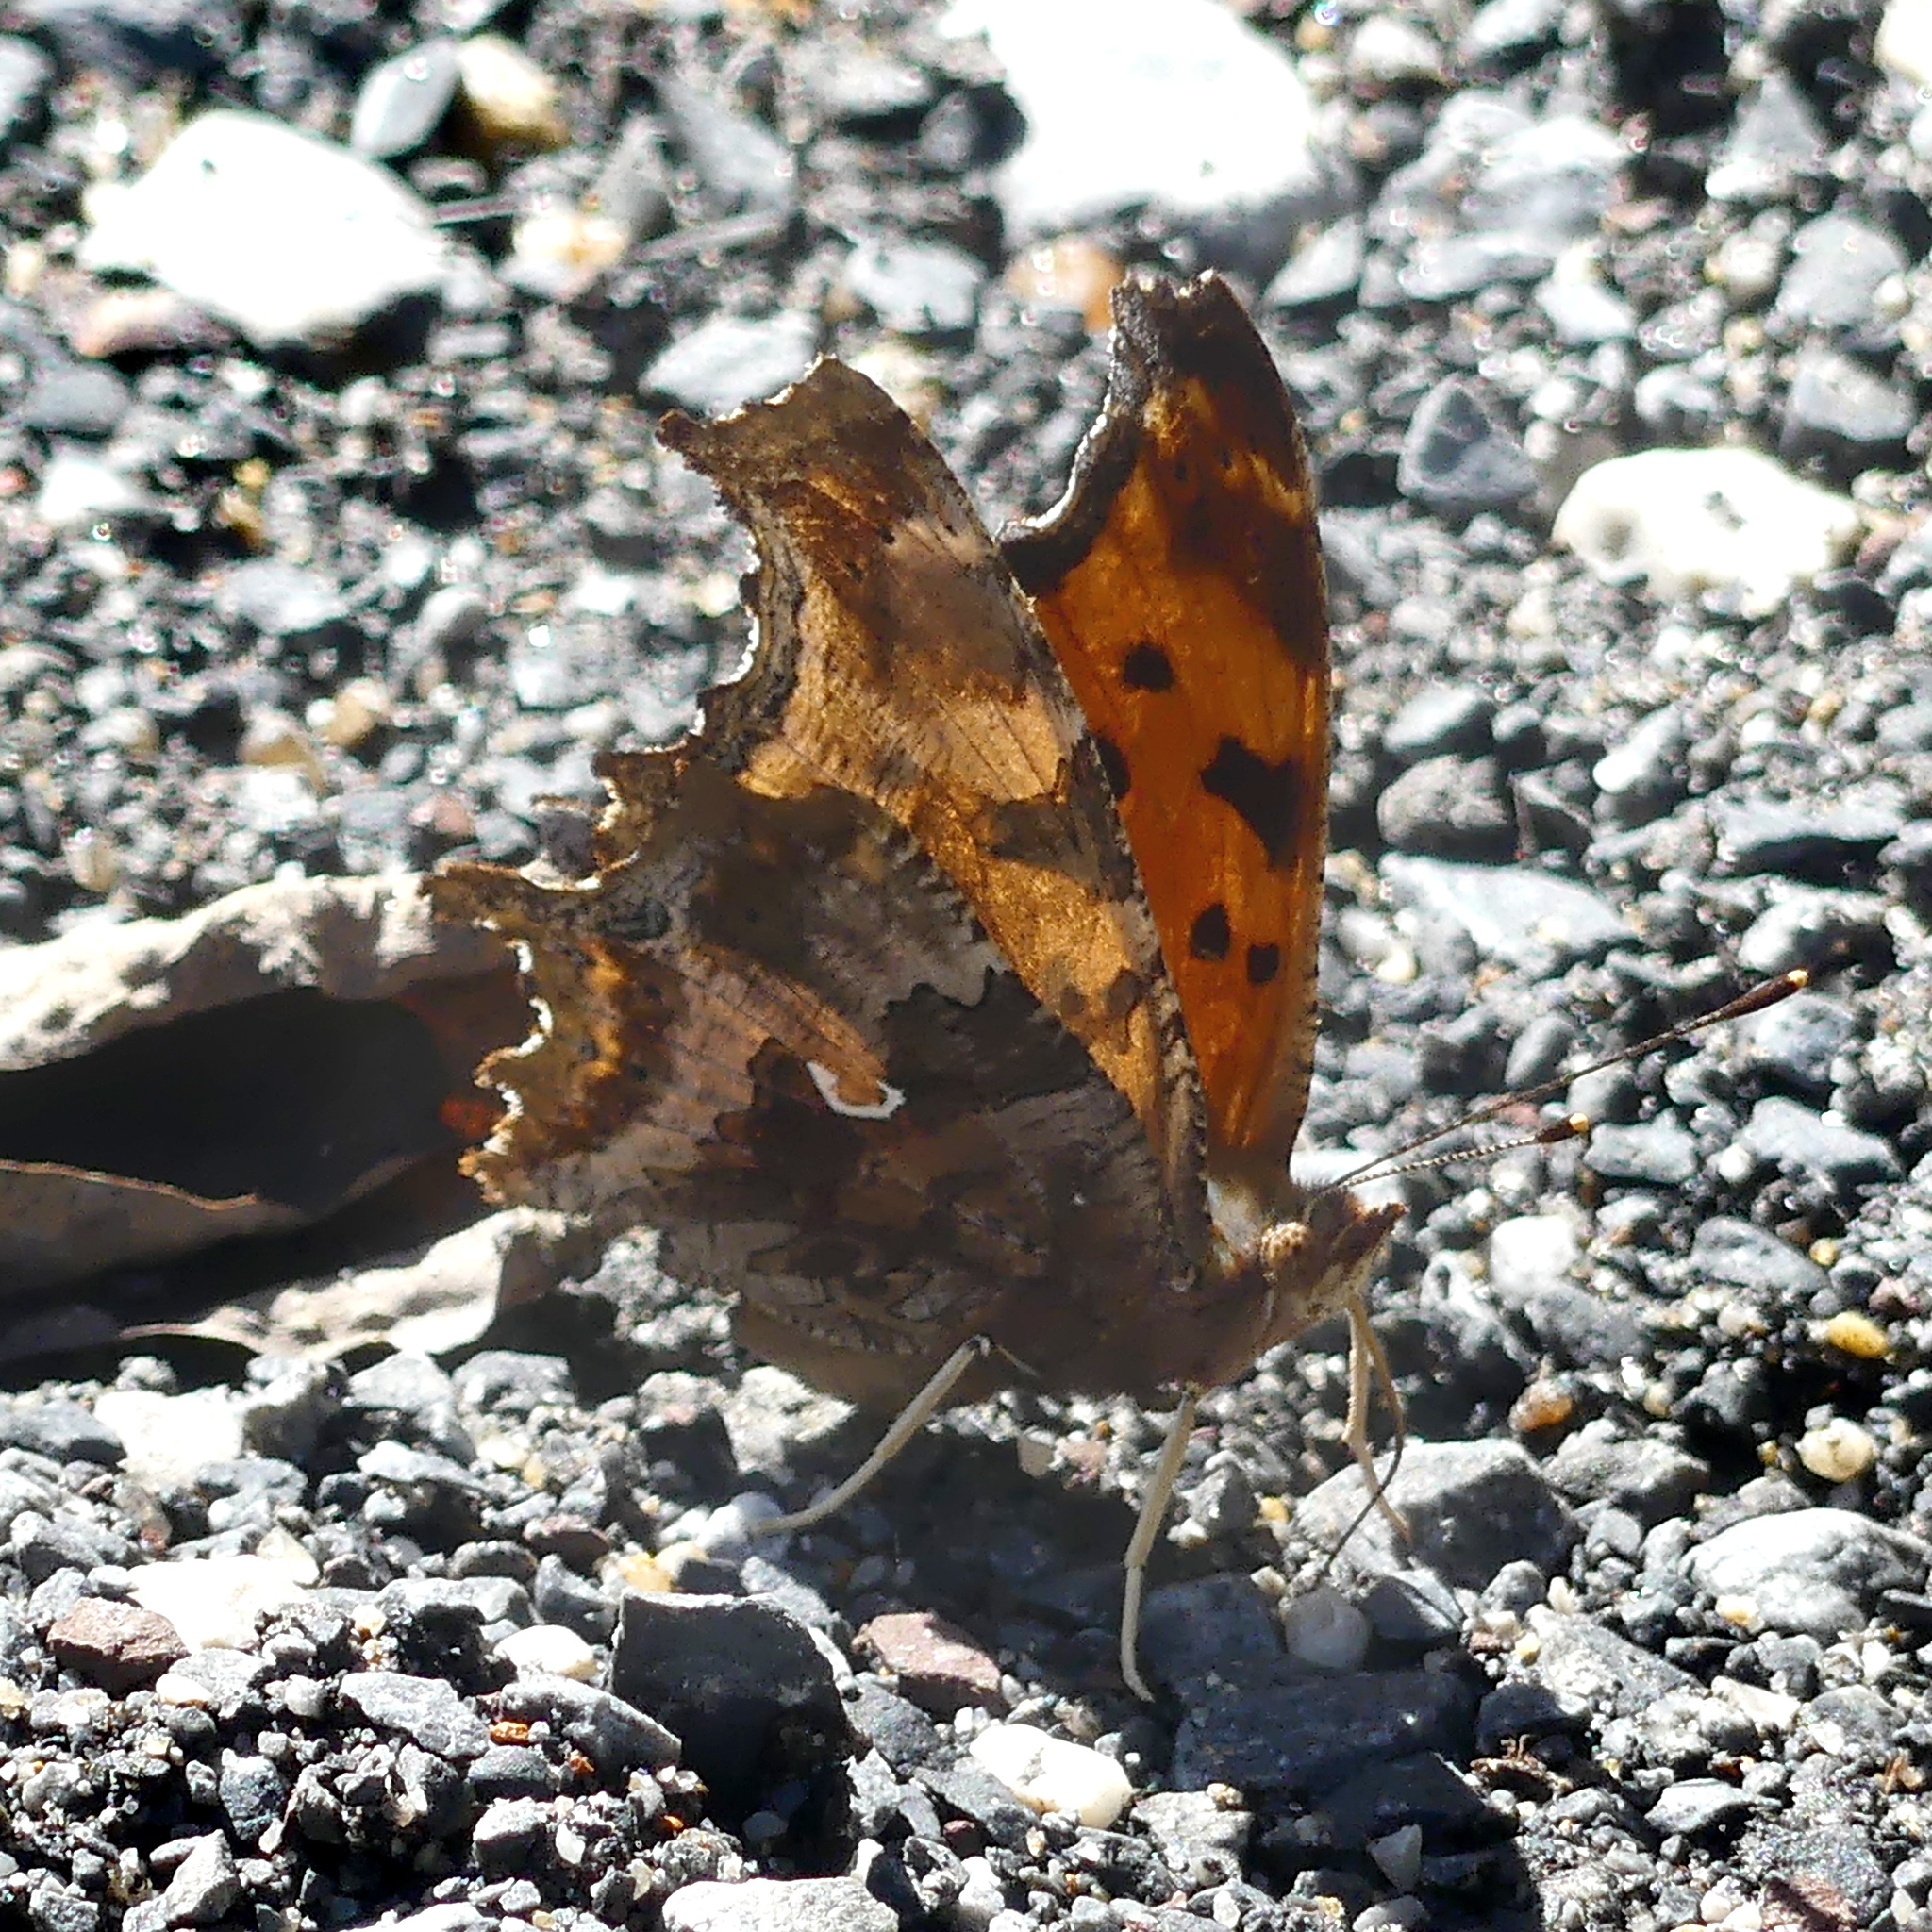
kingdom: Animalia
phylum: Arthropoda
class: Insecta
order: Lepidoptera
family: Nymphalidae
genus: Polygonia
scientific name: Polygonia comma
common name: Eastern comma
